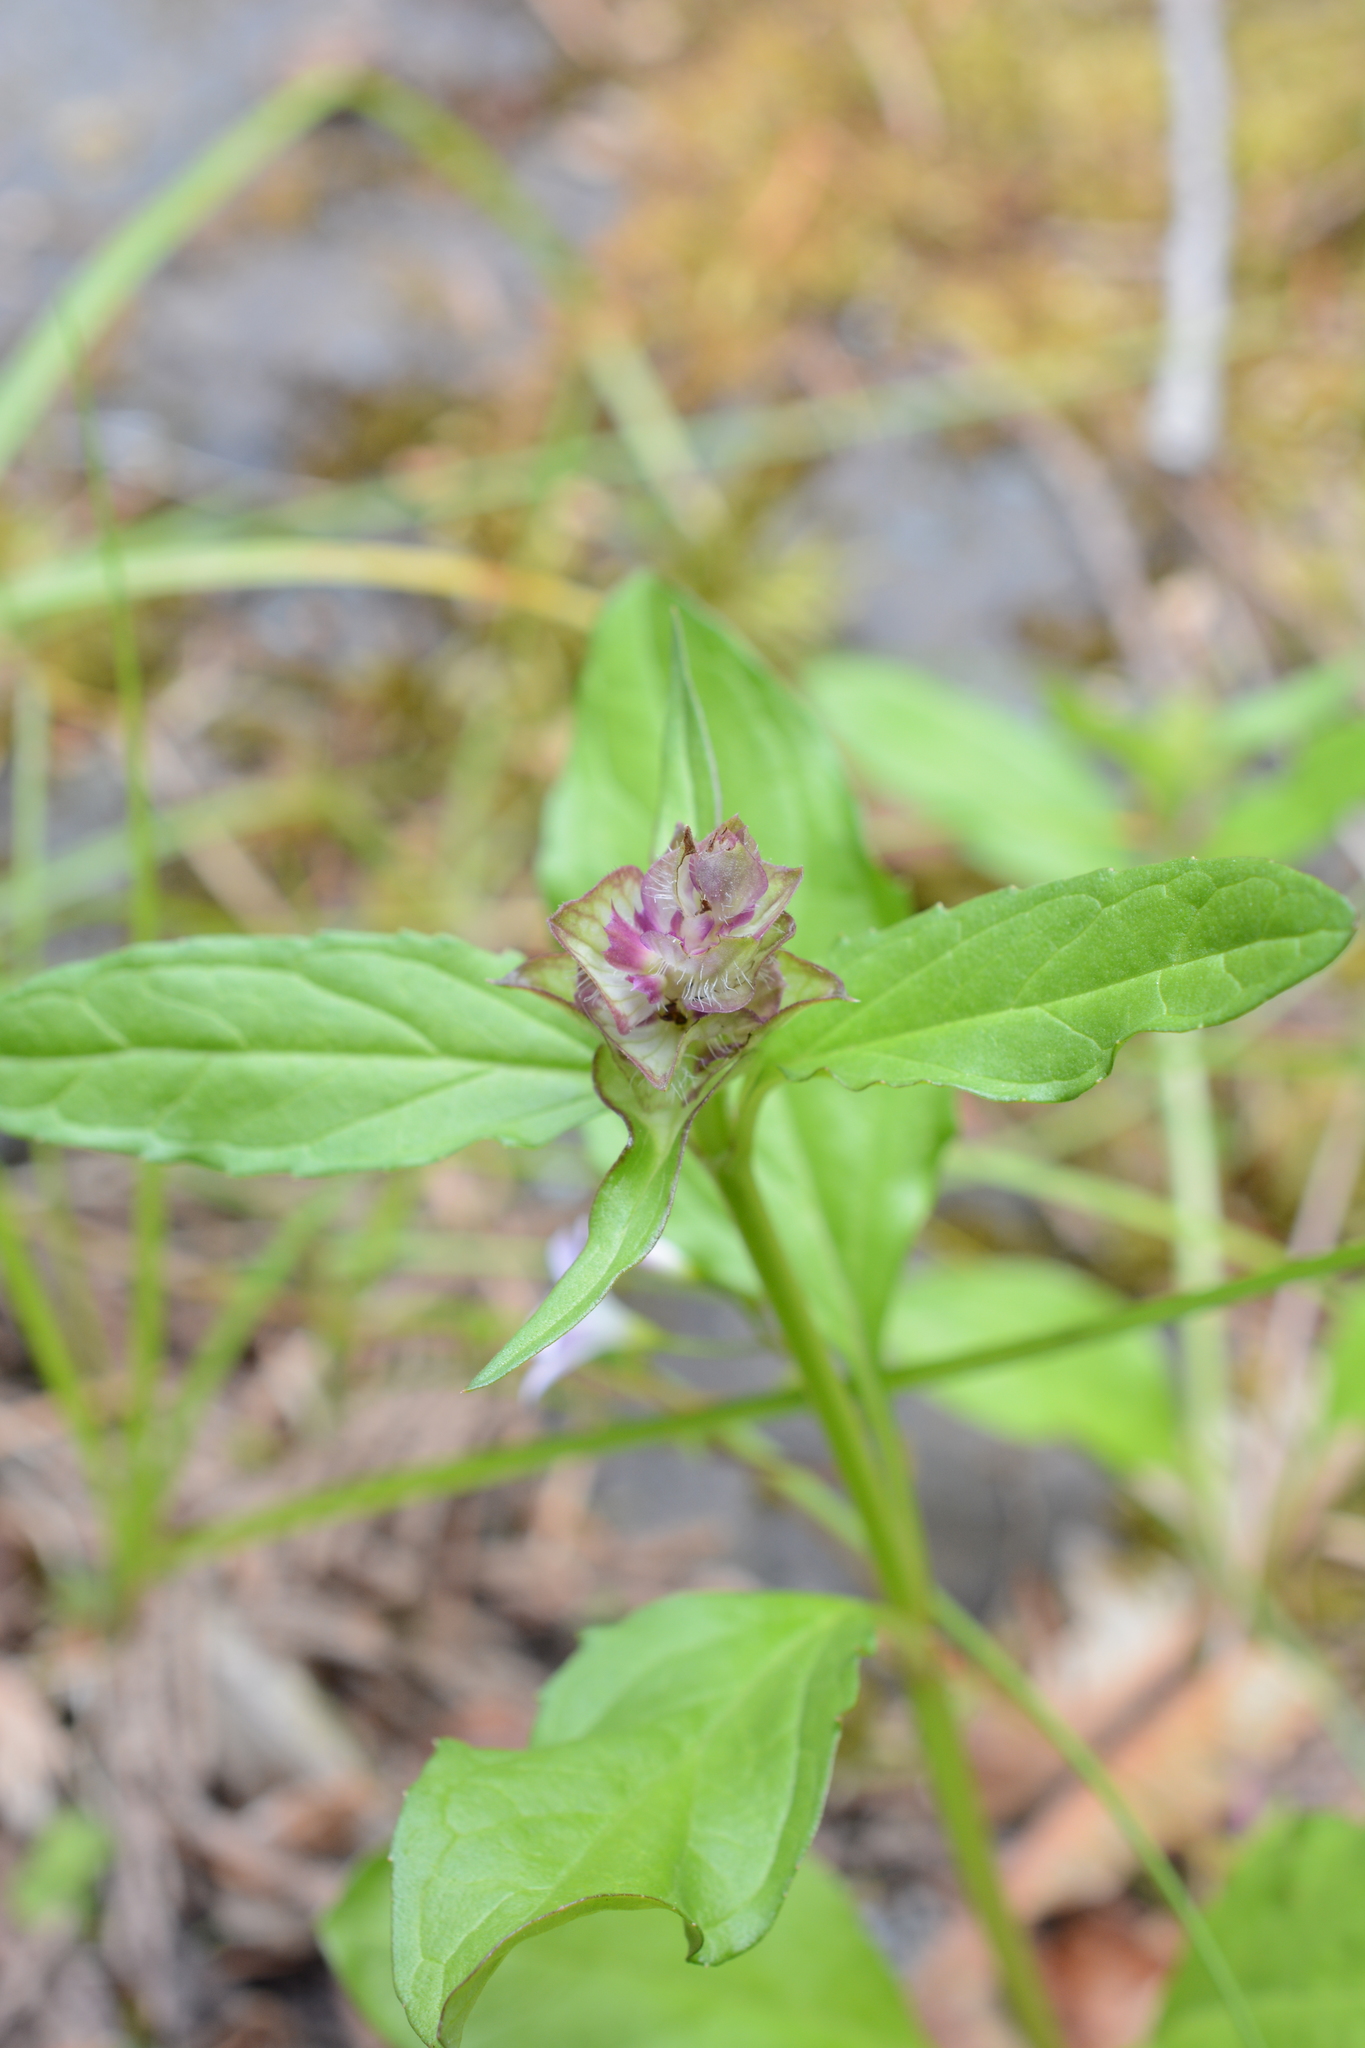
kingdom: Plantae
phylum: Tracheophyta
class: Magnoliopsida
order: Lamiales
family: Lamiaceae
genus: Prunella
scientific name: Prunella vulgaris
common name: Heal-all
